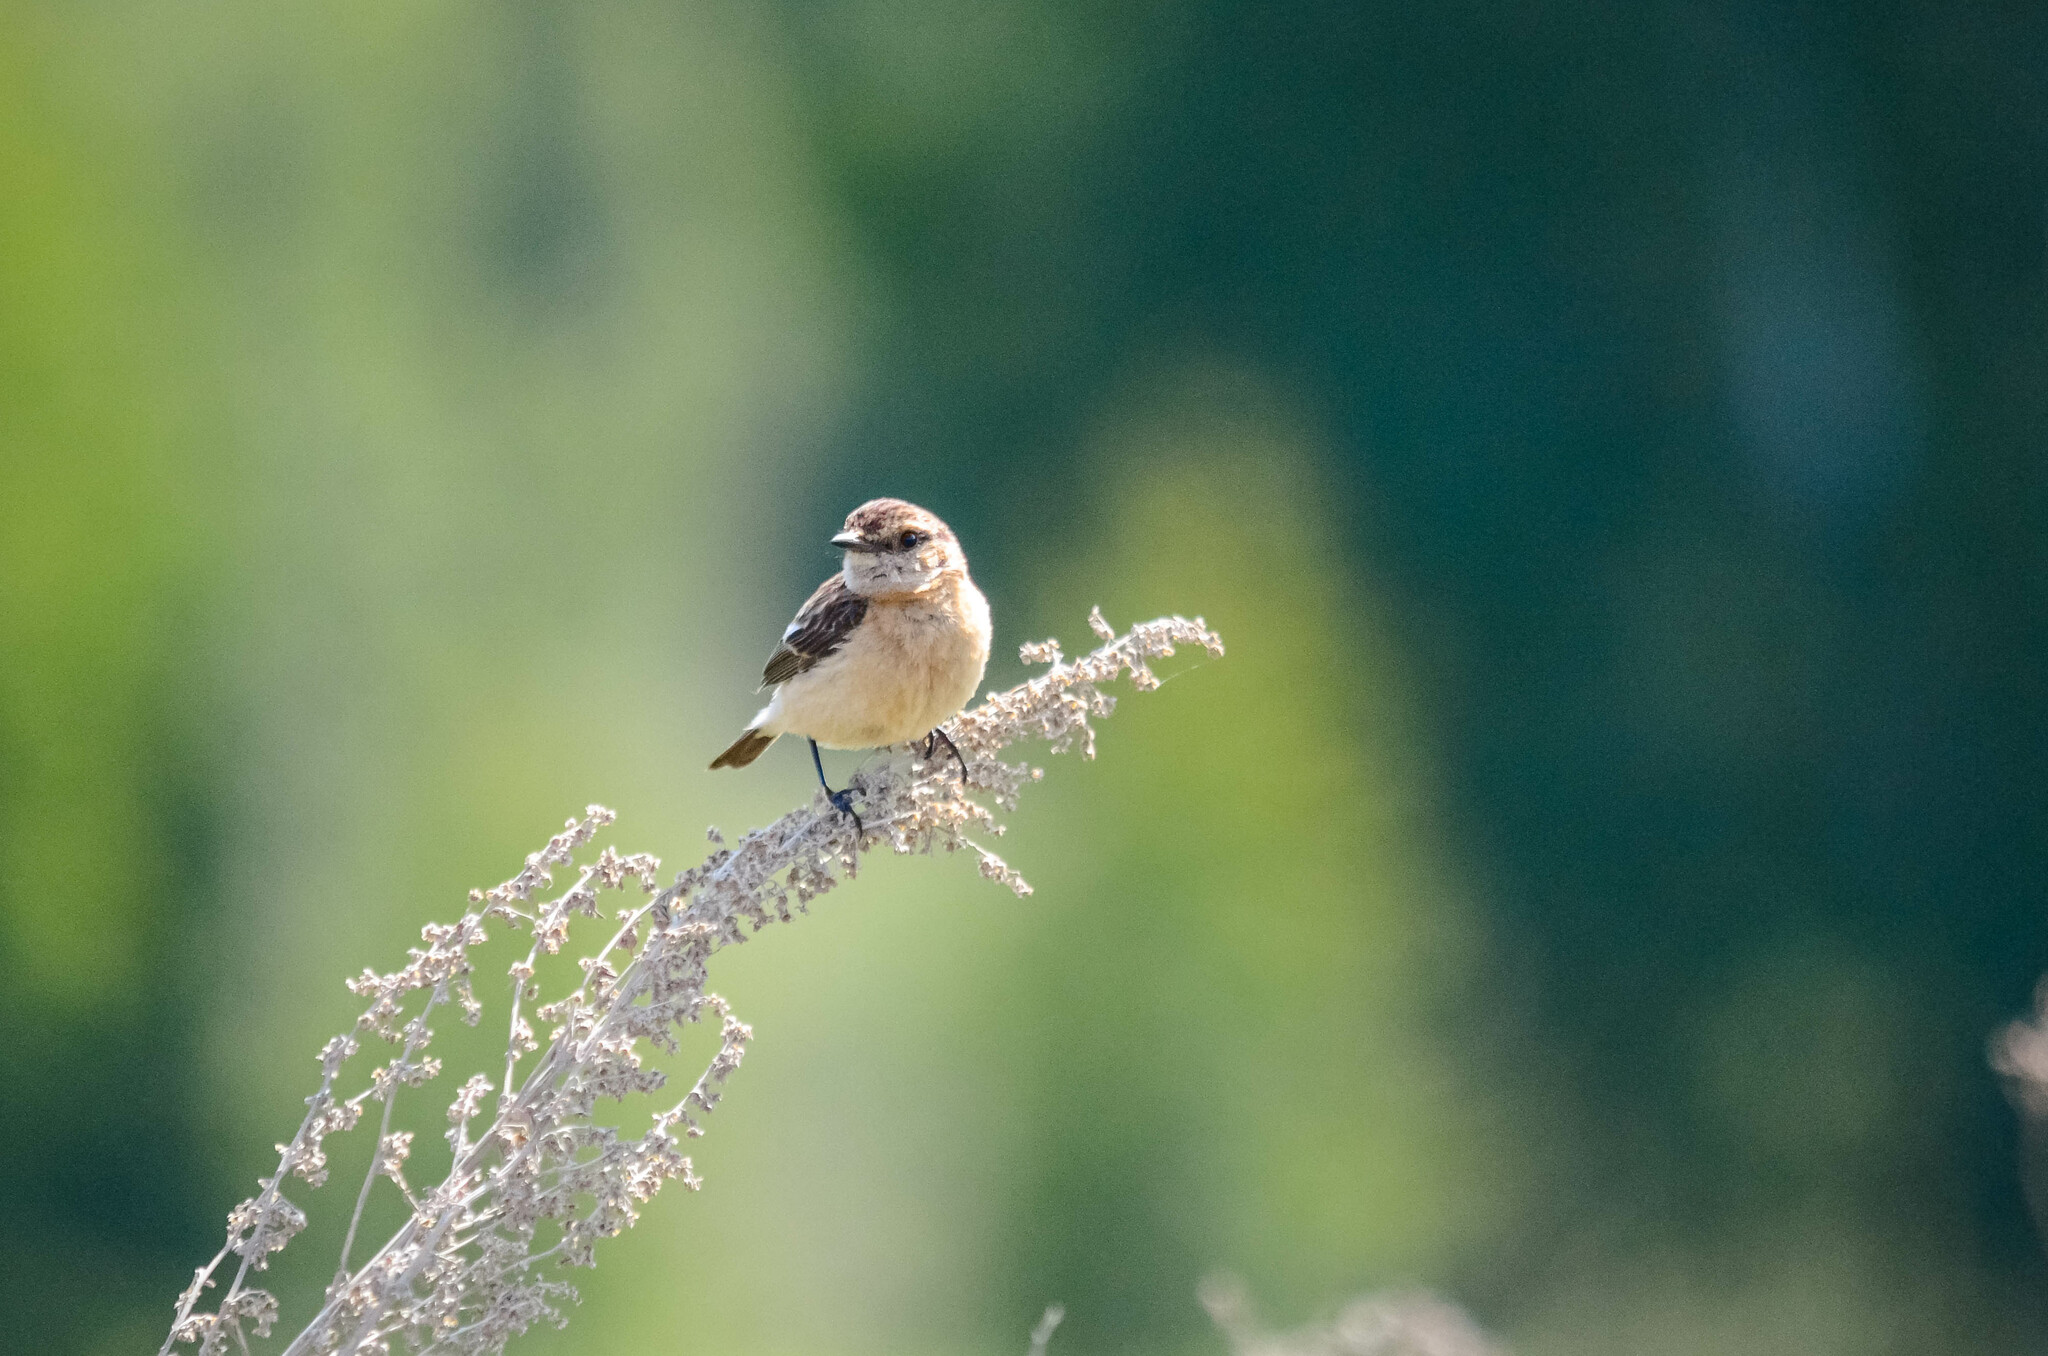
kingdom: Animalia
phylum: Chordata
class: Aves
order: Passeriformes
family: Muscicapidae
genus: Saxicola
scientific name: Saxicola maurus
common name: Siberian stonechat
